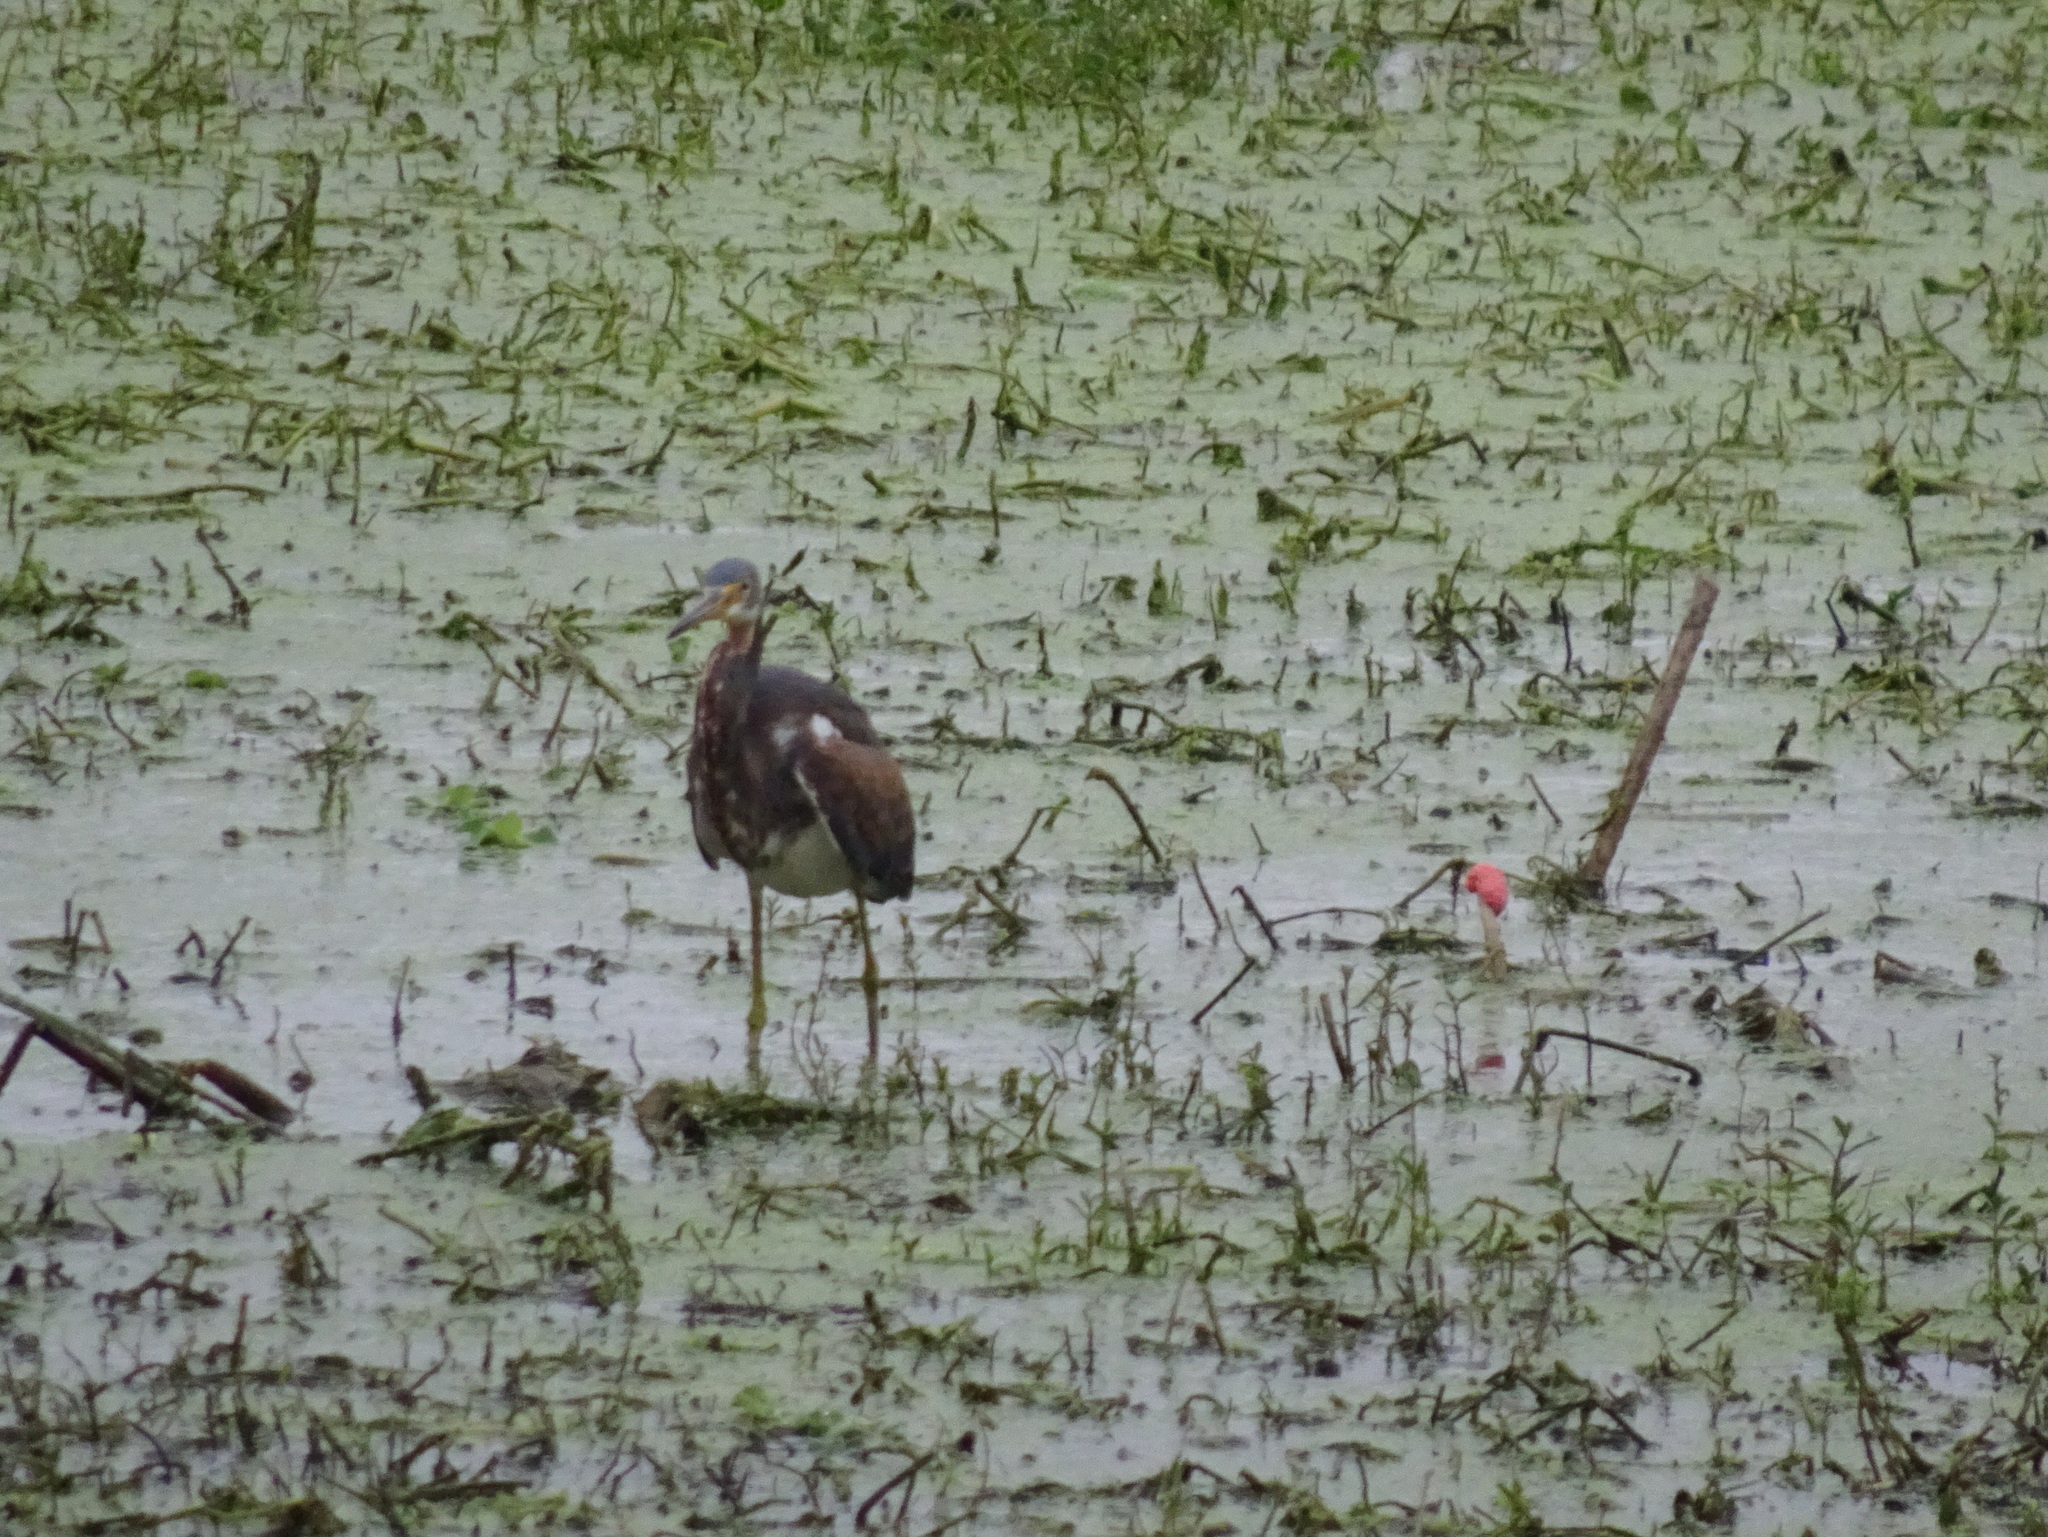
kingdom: Animalia
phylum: Chordata
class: Aves
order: Pelecaniformes
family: Ardeidae
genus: Egretta
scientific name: Egretta tricolor
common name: Tricolored heron
